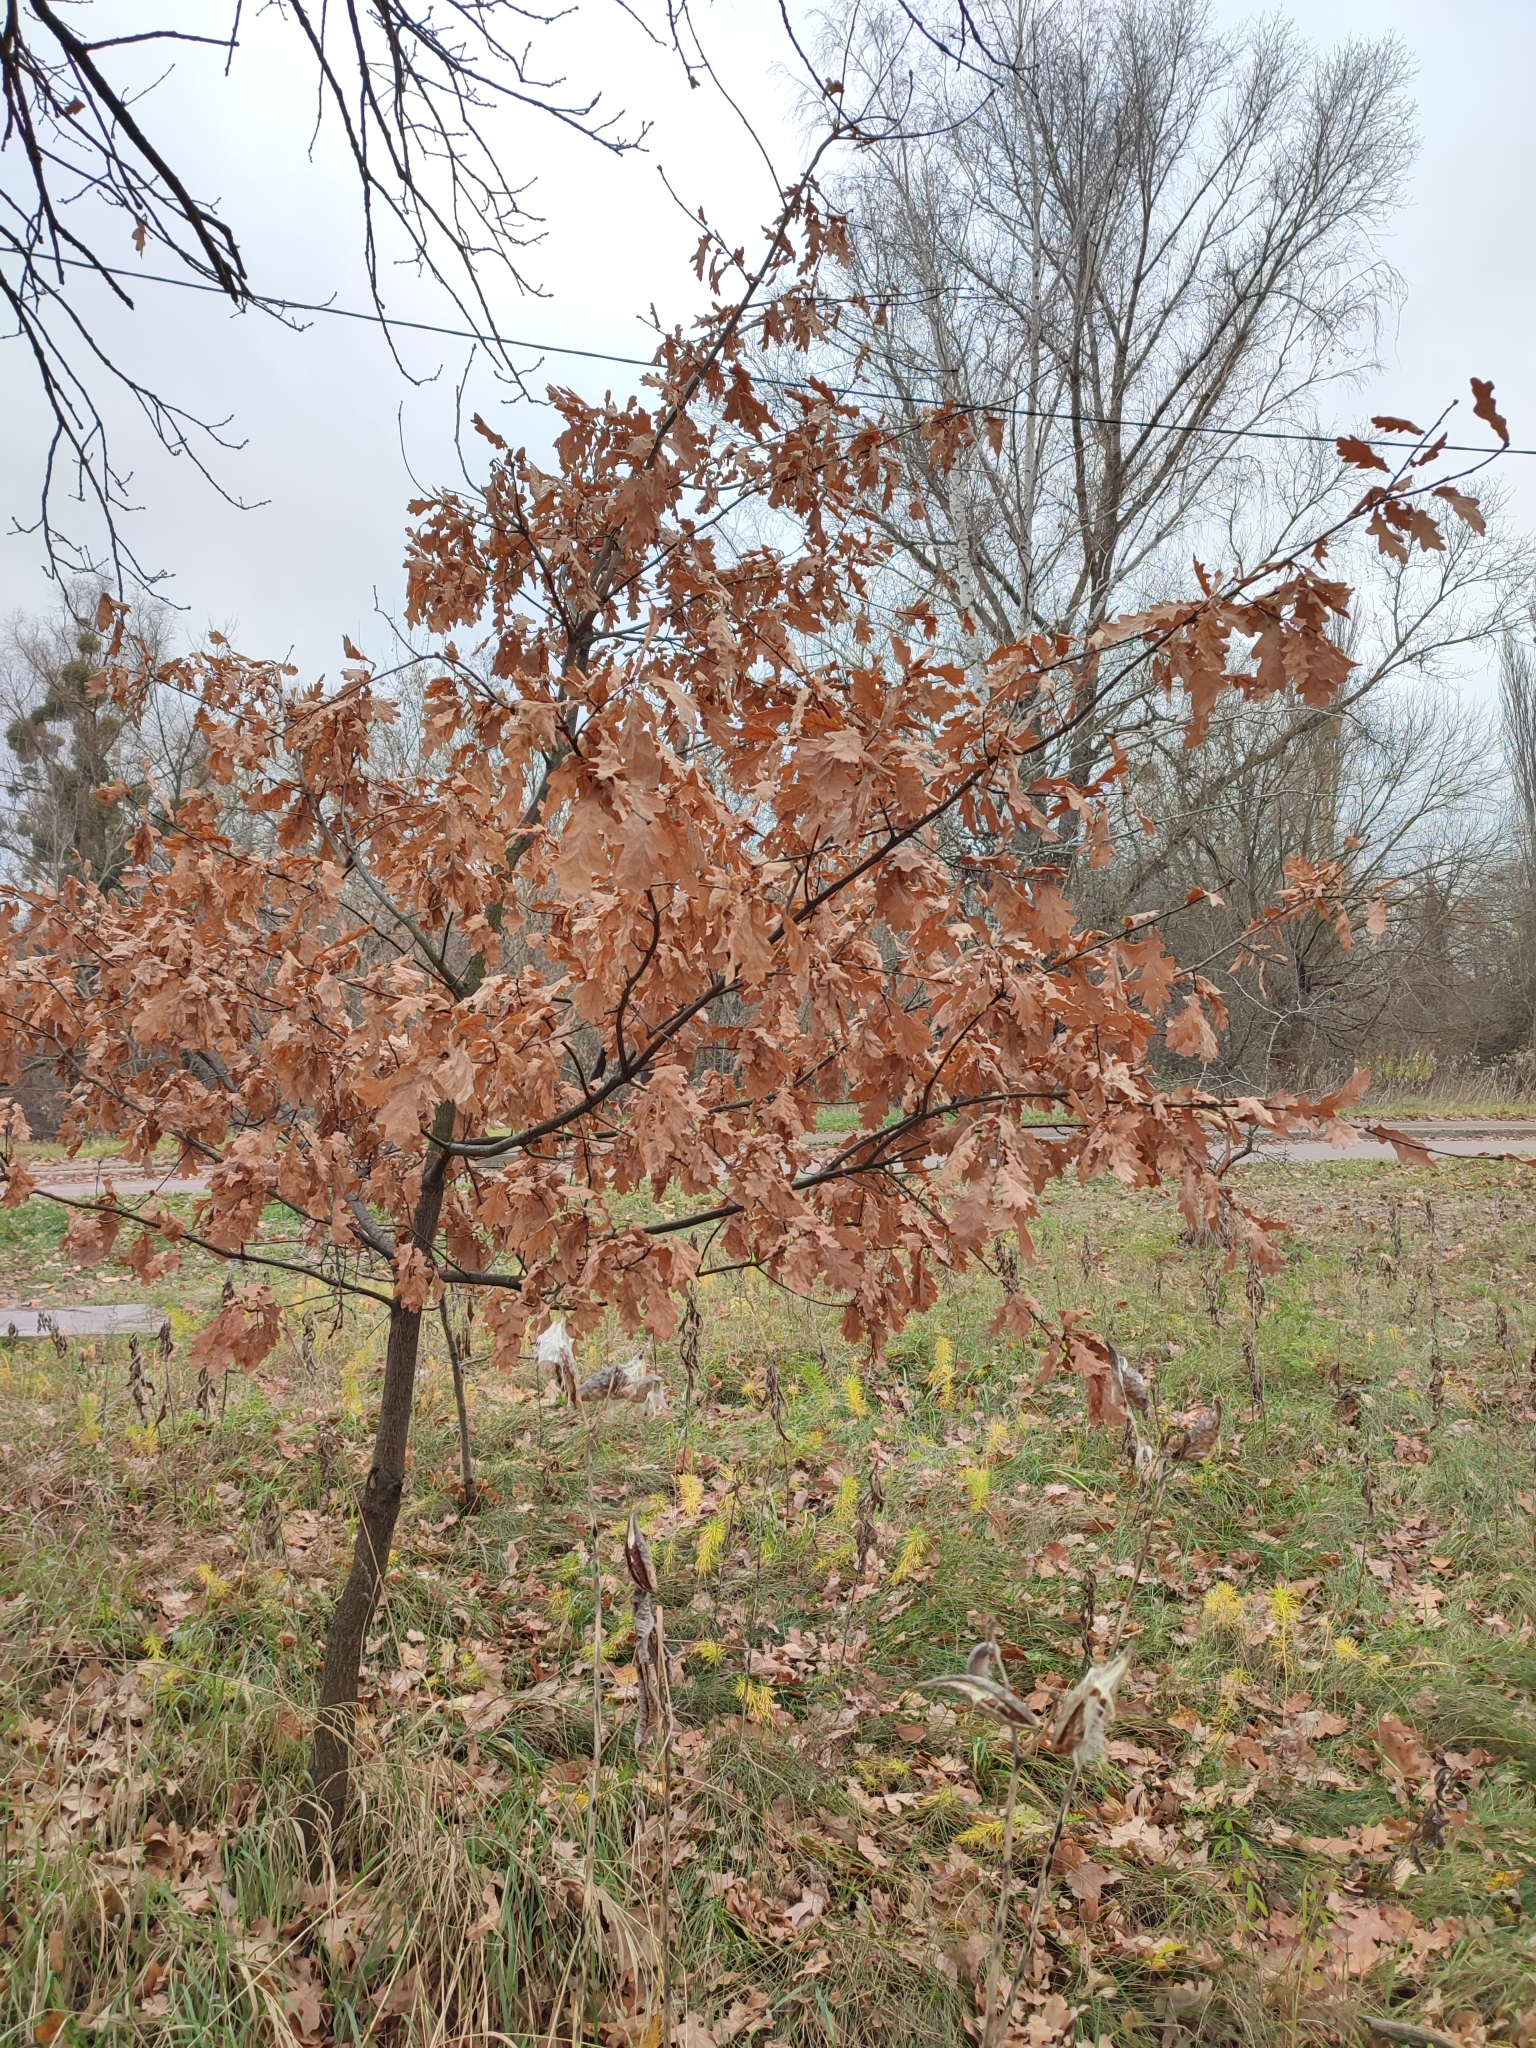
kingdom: Plantae
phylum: Tracheophyta
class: Magnoliopsida
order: Fagales
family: Fagaceae
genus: Quercus
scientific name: Quercus robur
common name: Pedunculate oak
